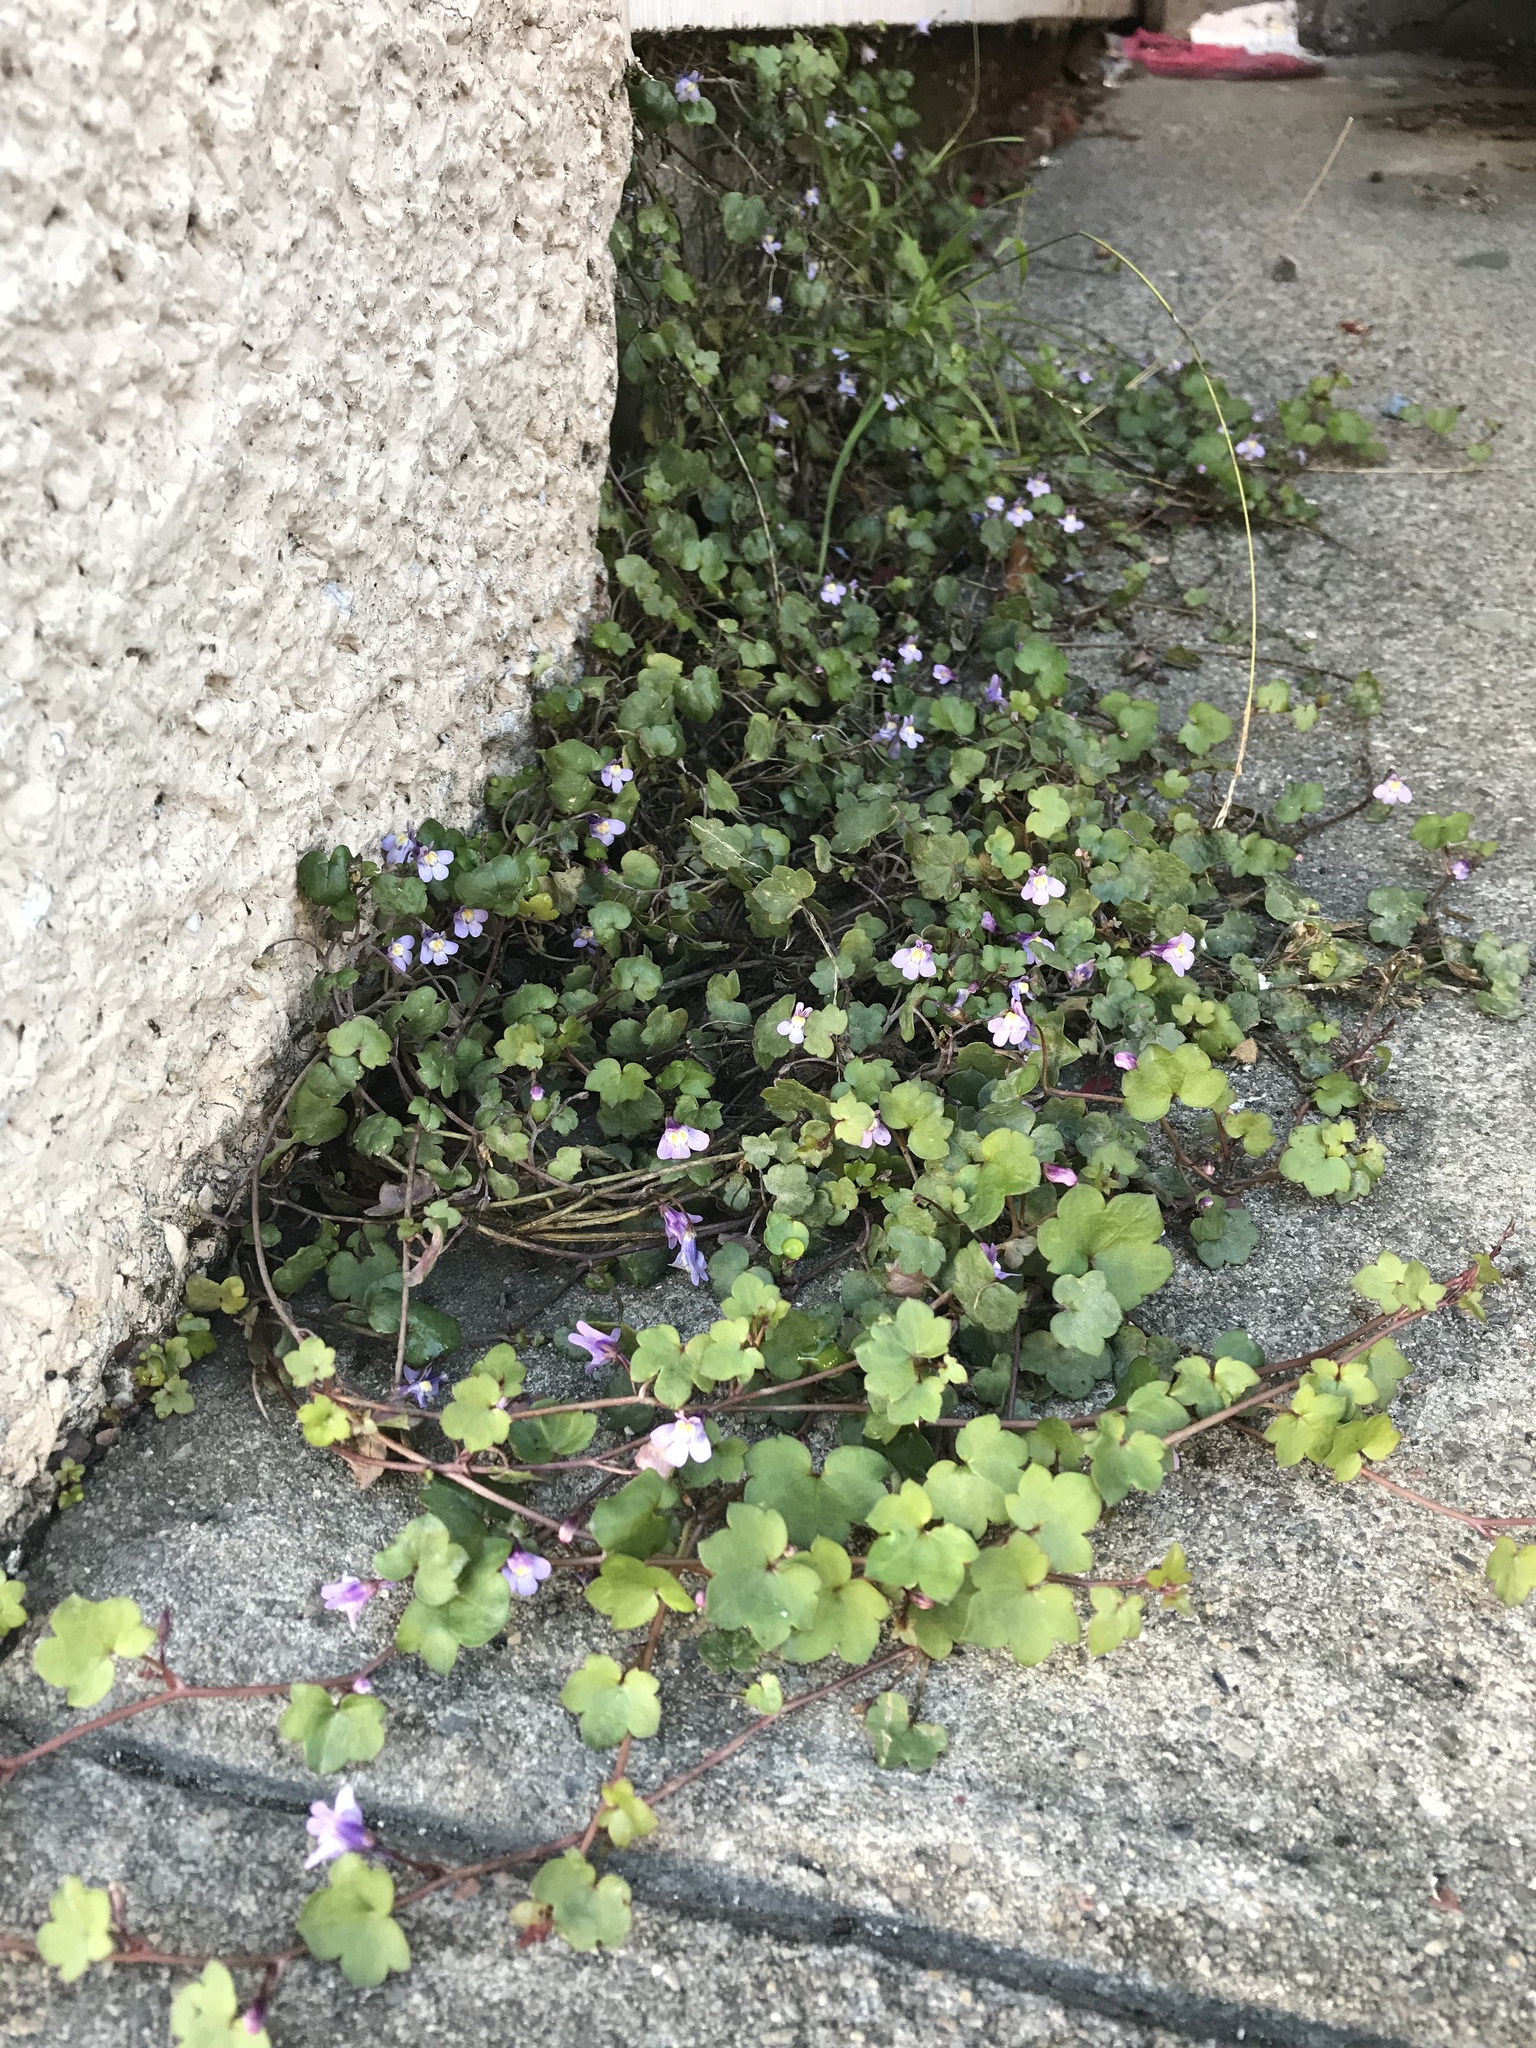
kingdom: Plantae
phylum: Tracheophyta
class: Magnoliopsida
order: Lamiales
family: Plantaginaceae
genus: Cymbalaria
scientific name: Cymbalaria muralis
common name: Ivy-leaved toadflax
